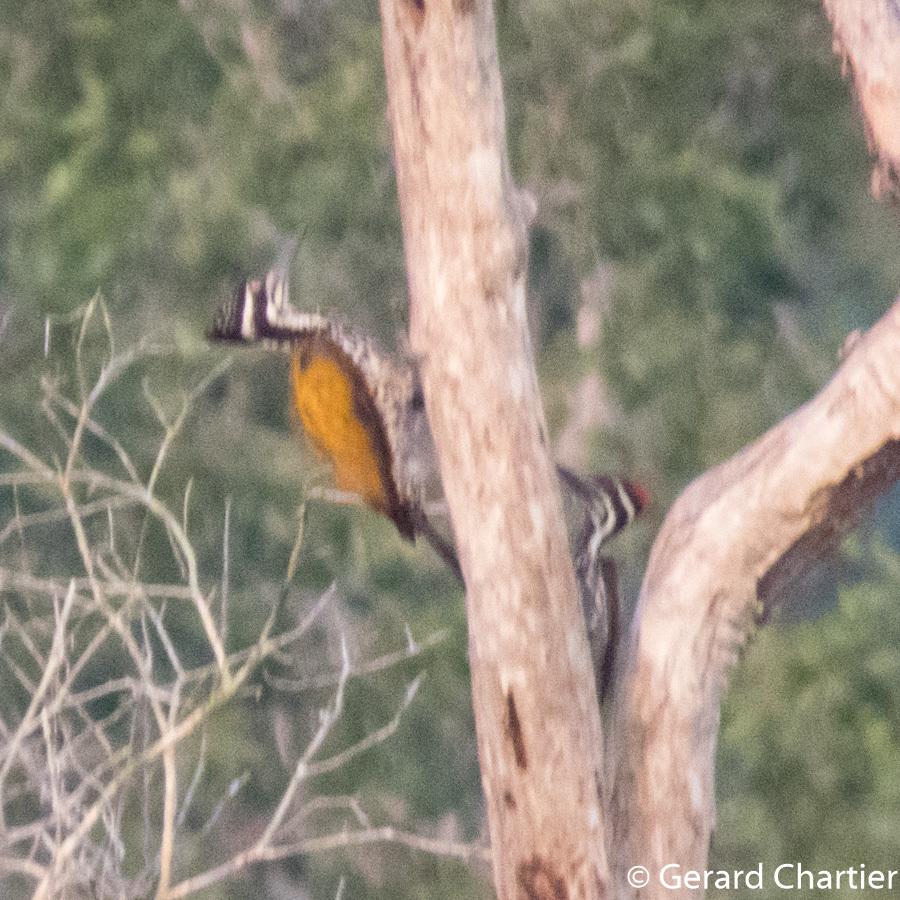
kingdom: Animalia
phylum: Chordata
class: Aves
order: Piciformes
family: Picidae
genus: Chrysocolaptes
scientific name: Chrysocolaptes guttacristatus
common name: Greater flameback
